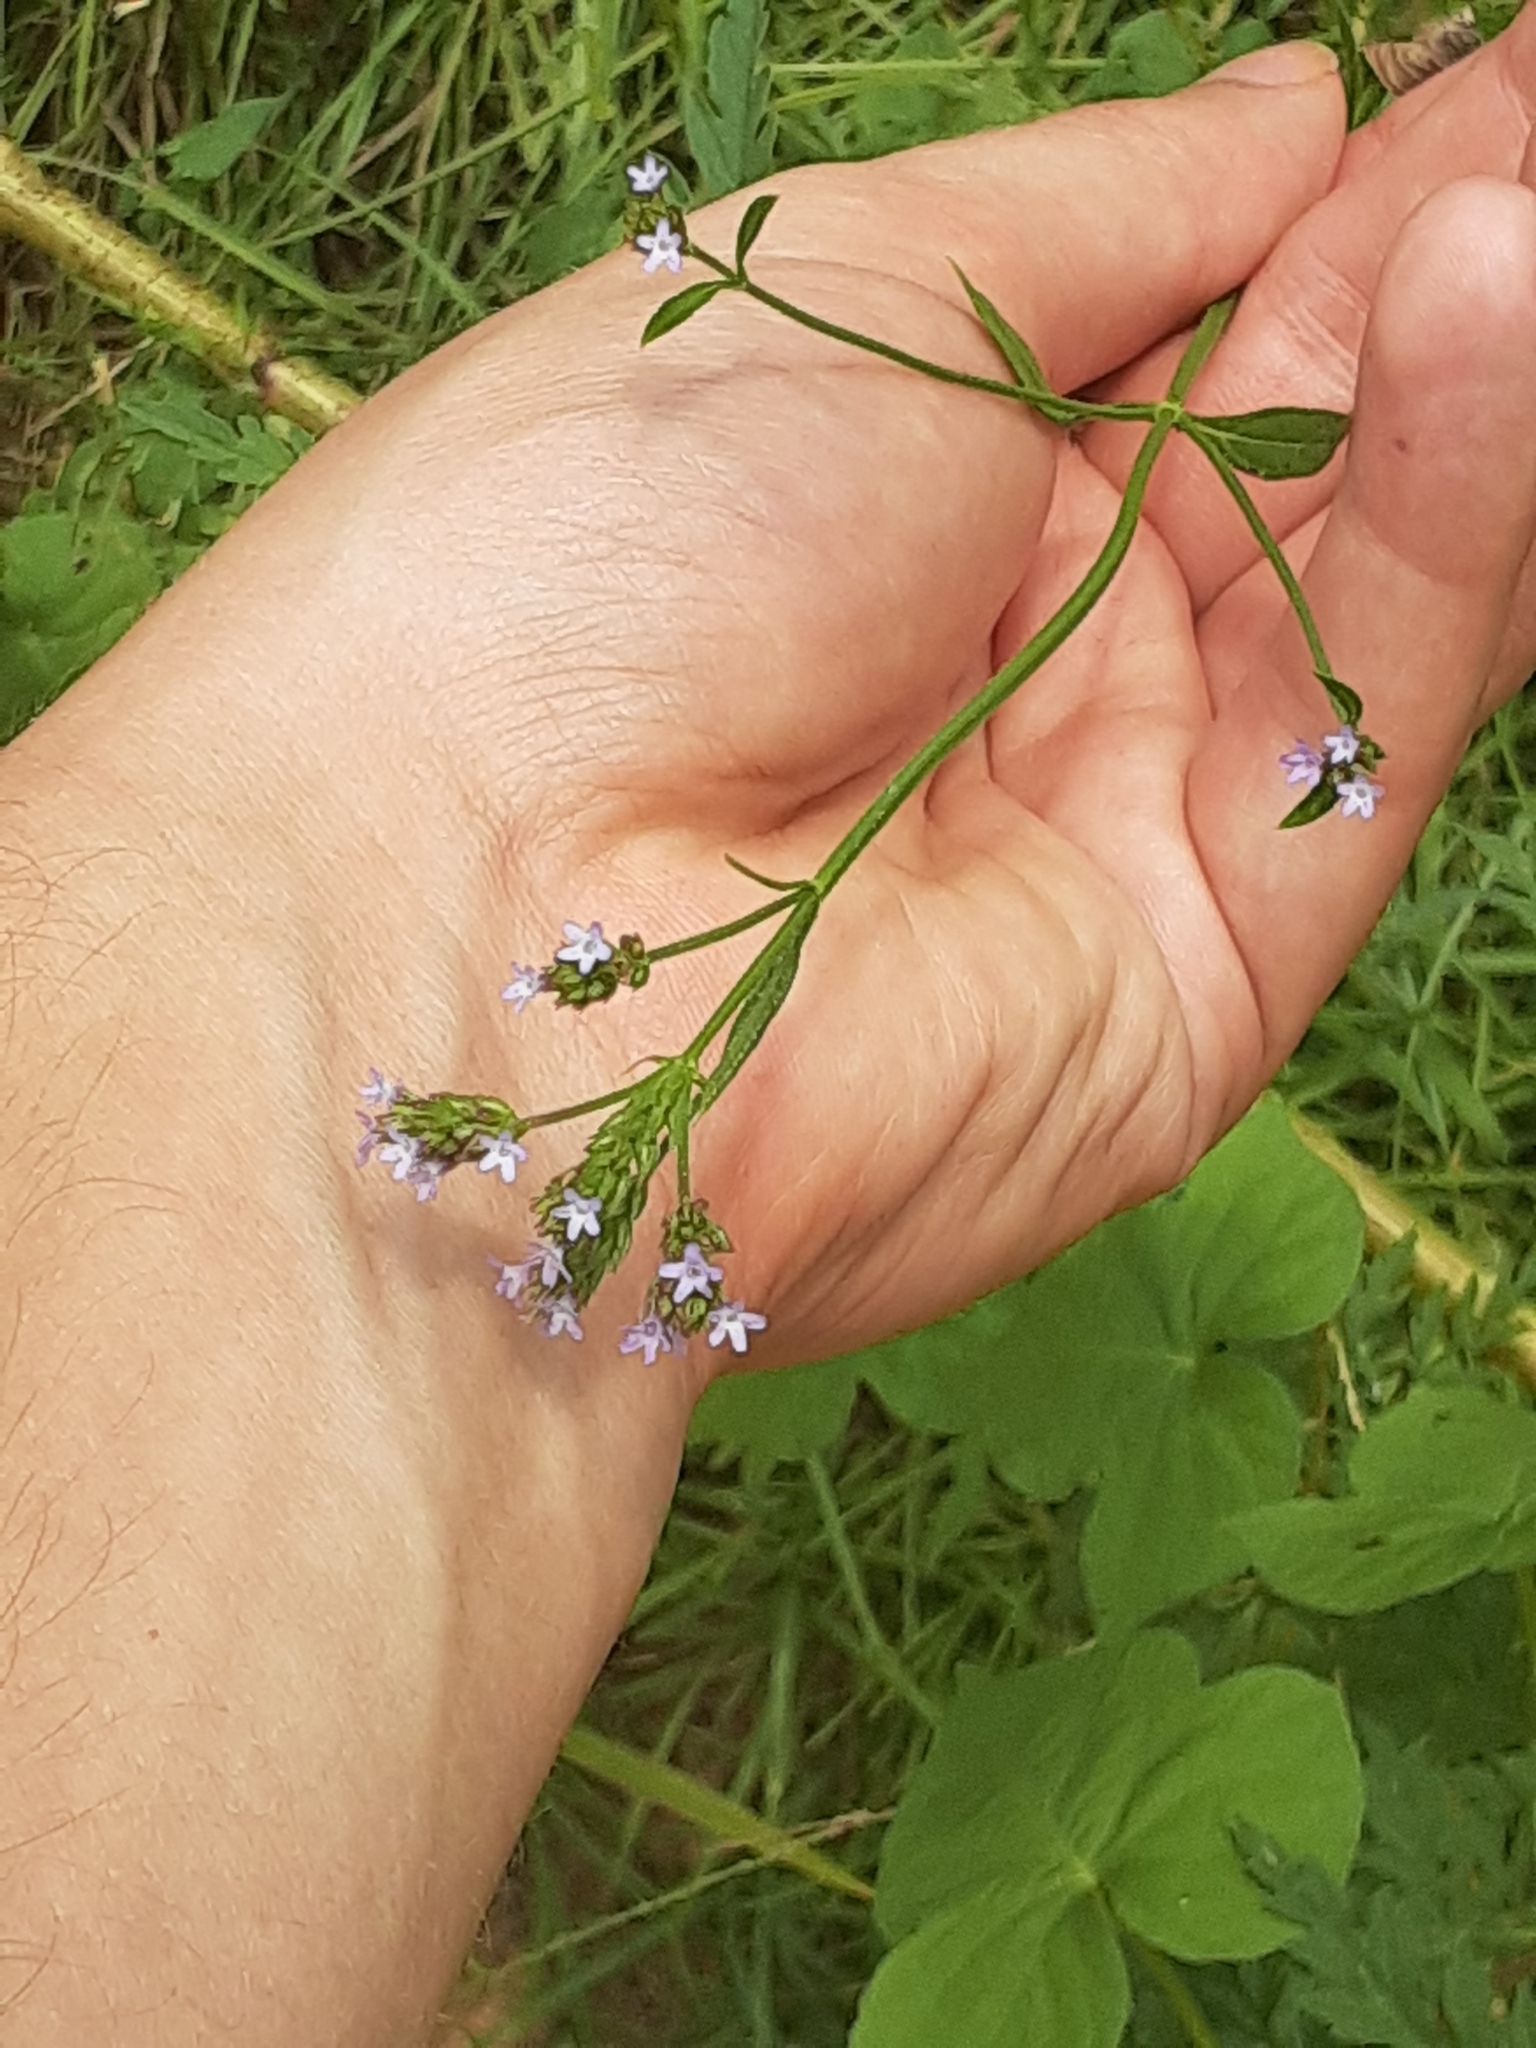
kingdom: Plantae
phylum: Tracheophyta
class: Magnoliopsida
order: Lamiales
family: Verbenaceae
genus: Verbena
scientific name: Verbena brasiliensis
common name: Brazilian vervain
